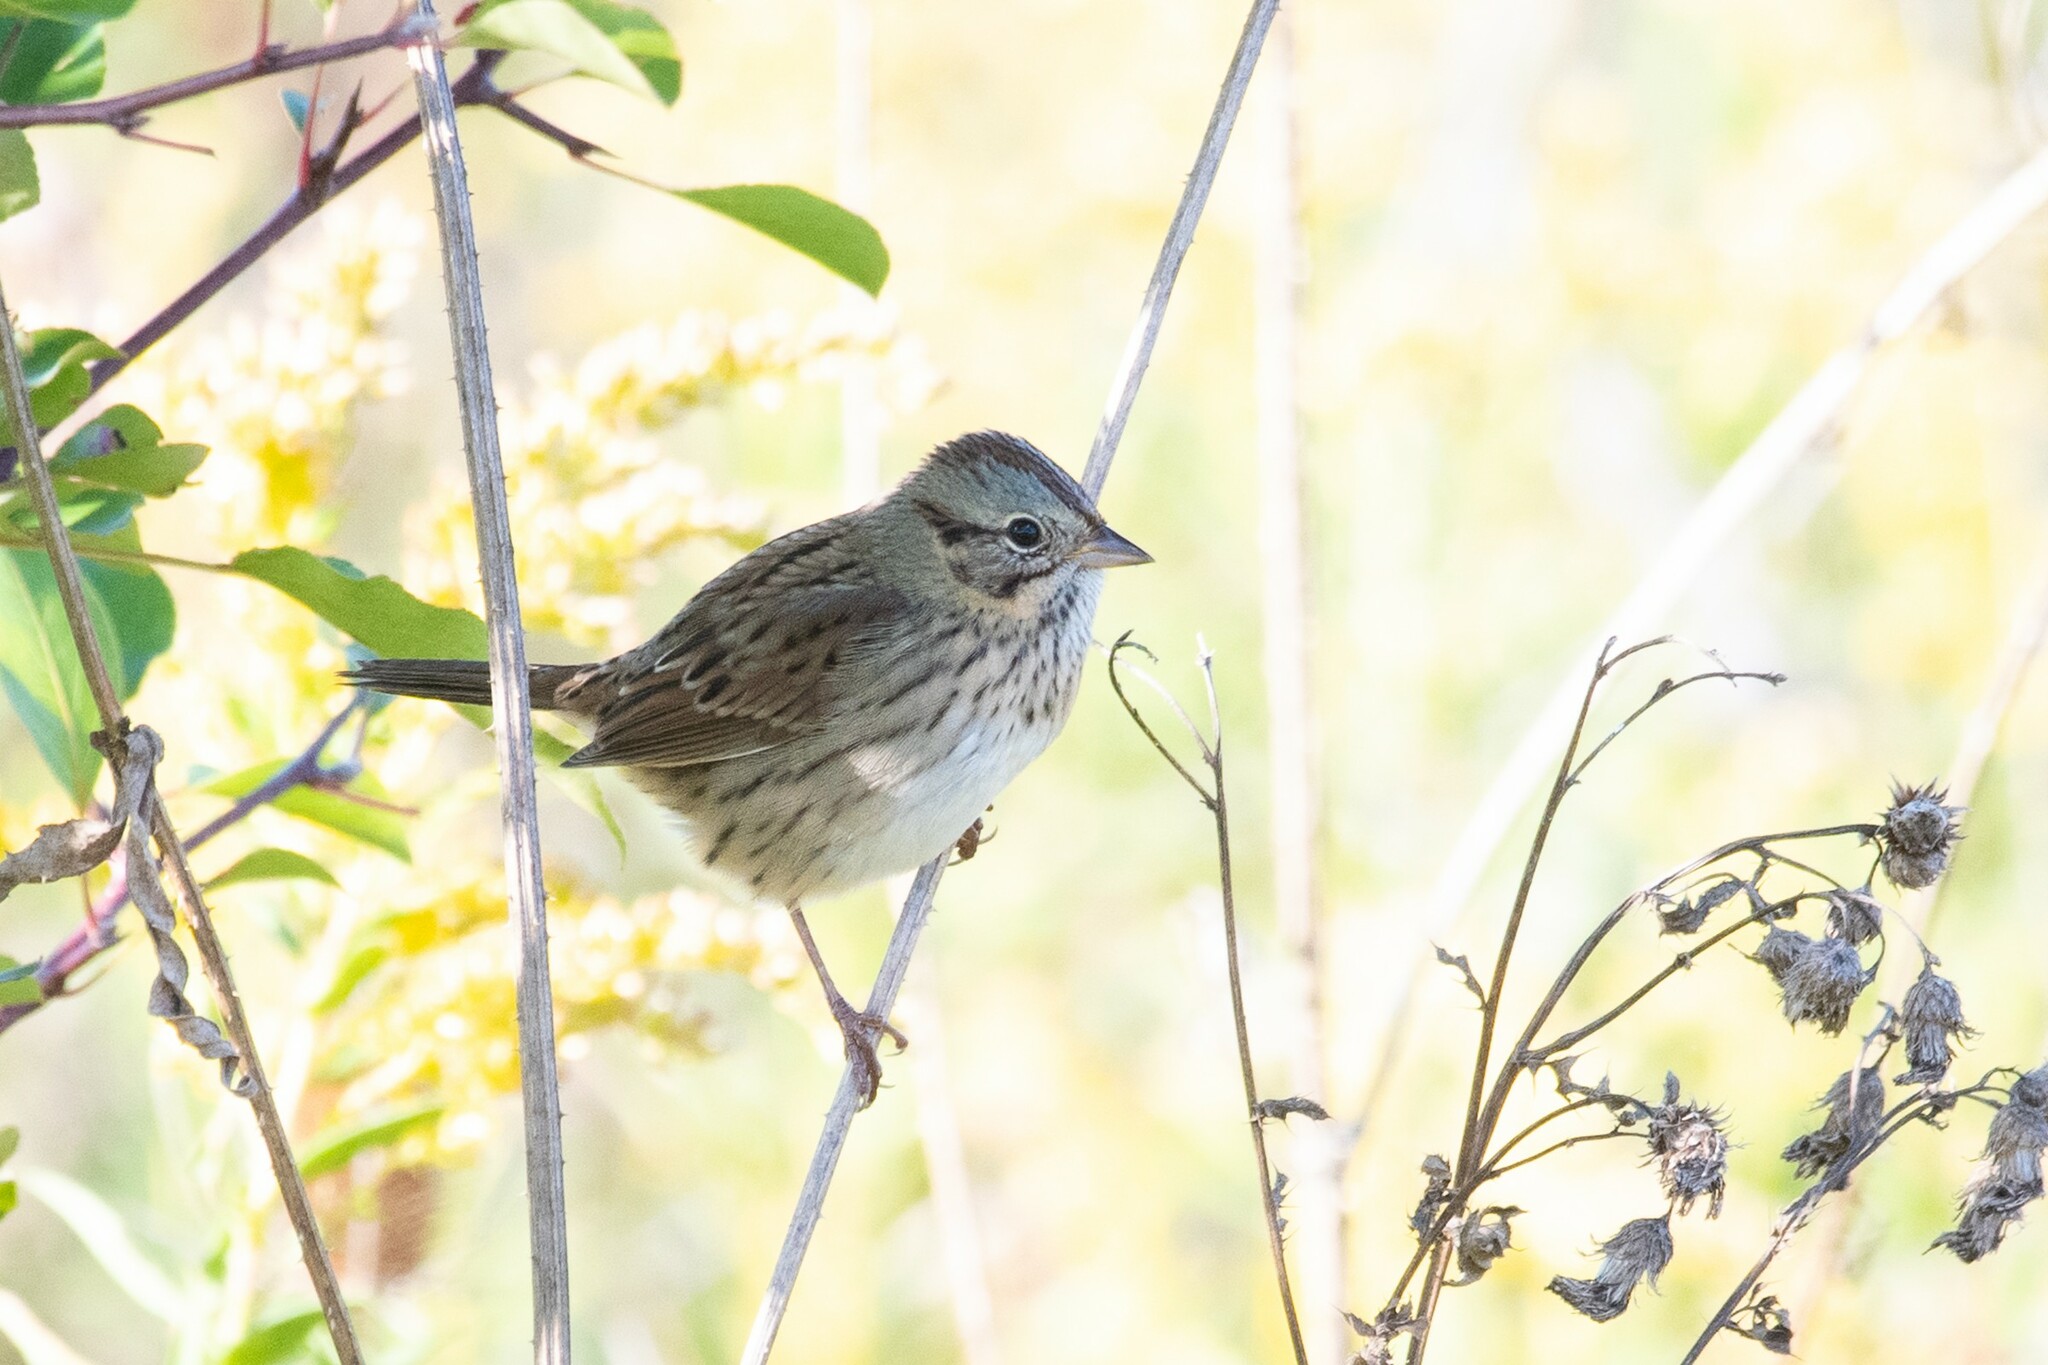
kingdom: Animalia
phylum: Chordata
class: Aves
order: Passeriformes
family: Passerellidae
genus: Melospiza
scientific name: Melospiza lincolnii
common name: Lincoln's sparrow
